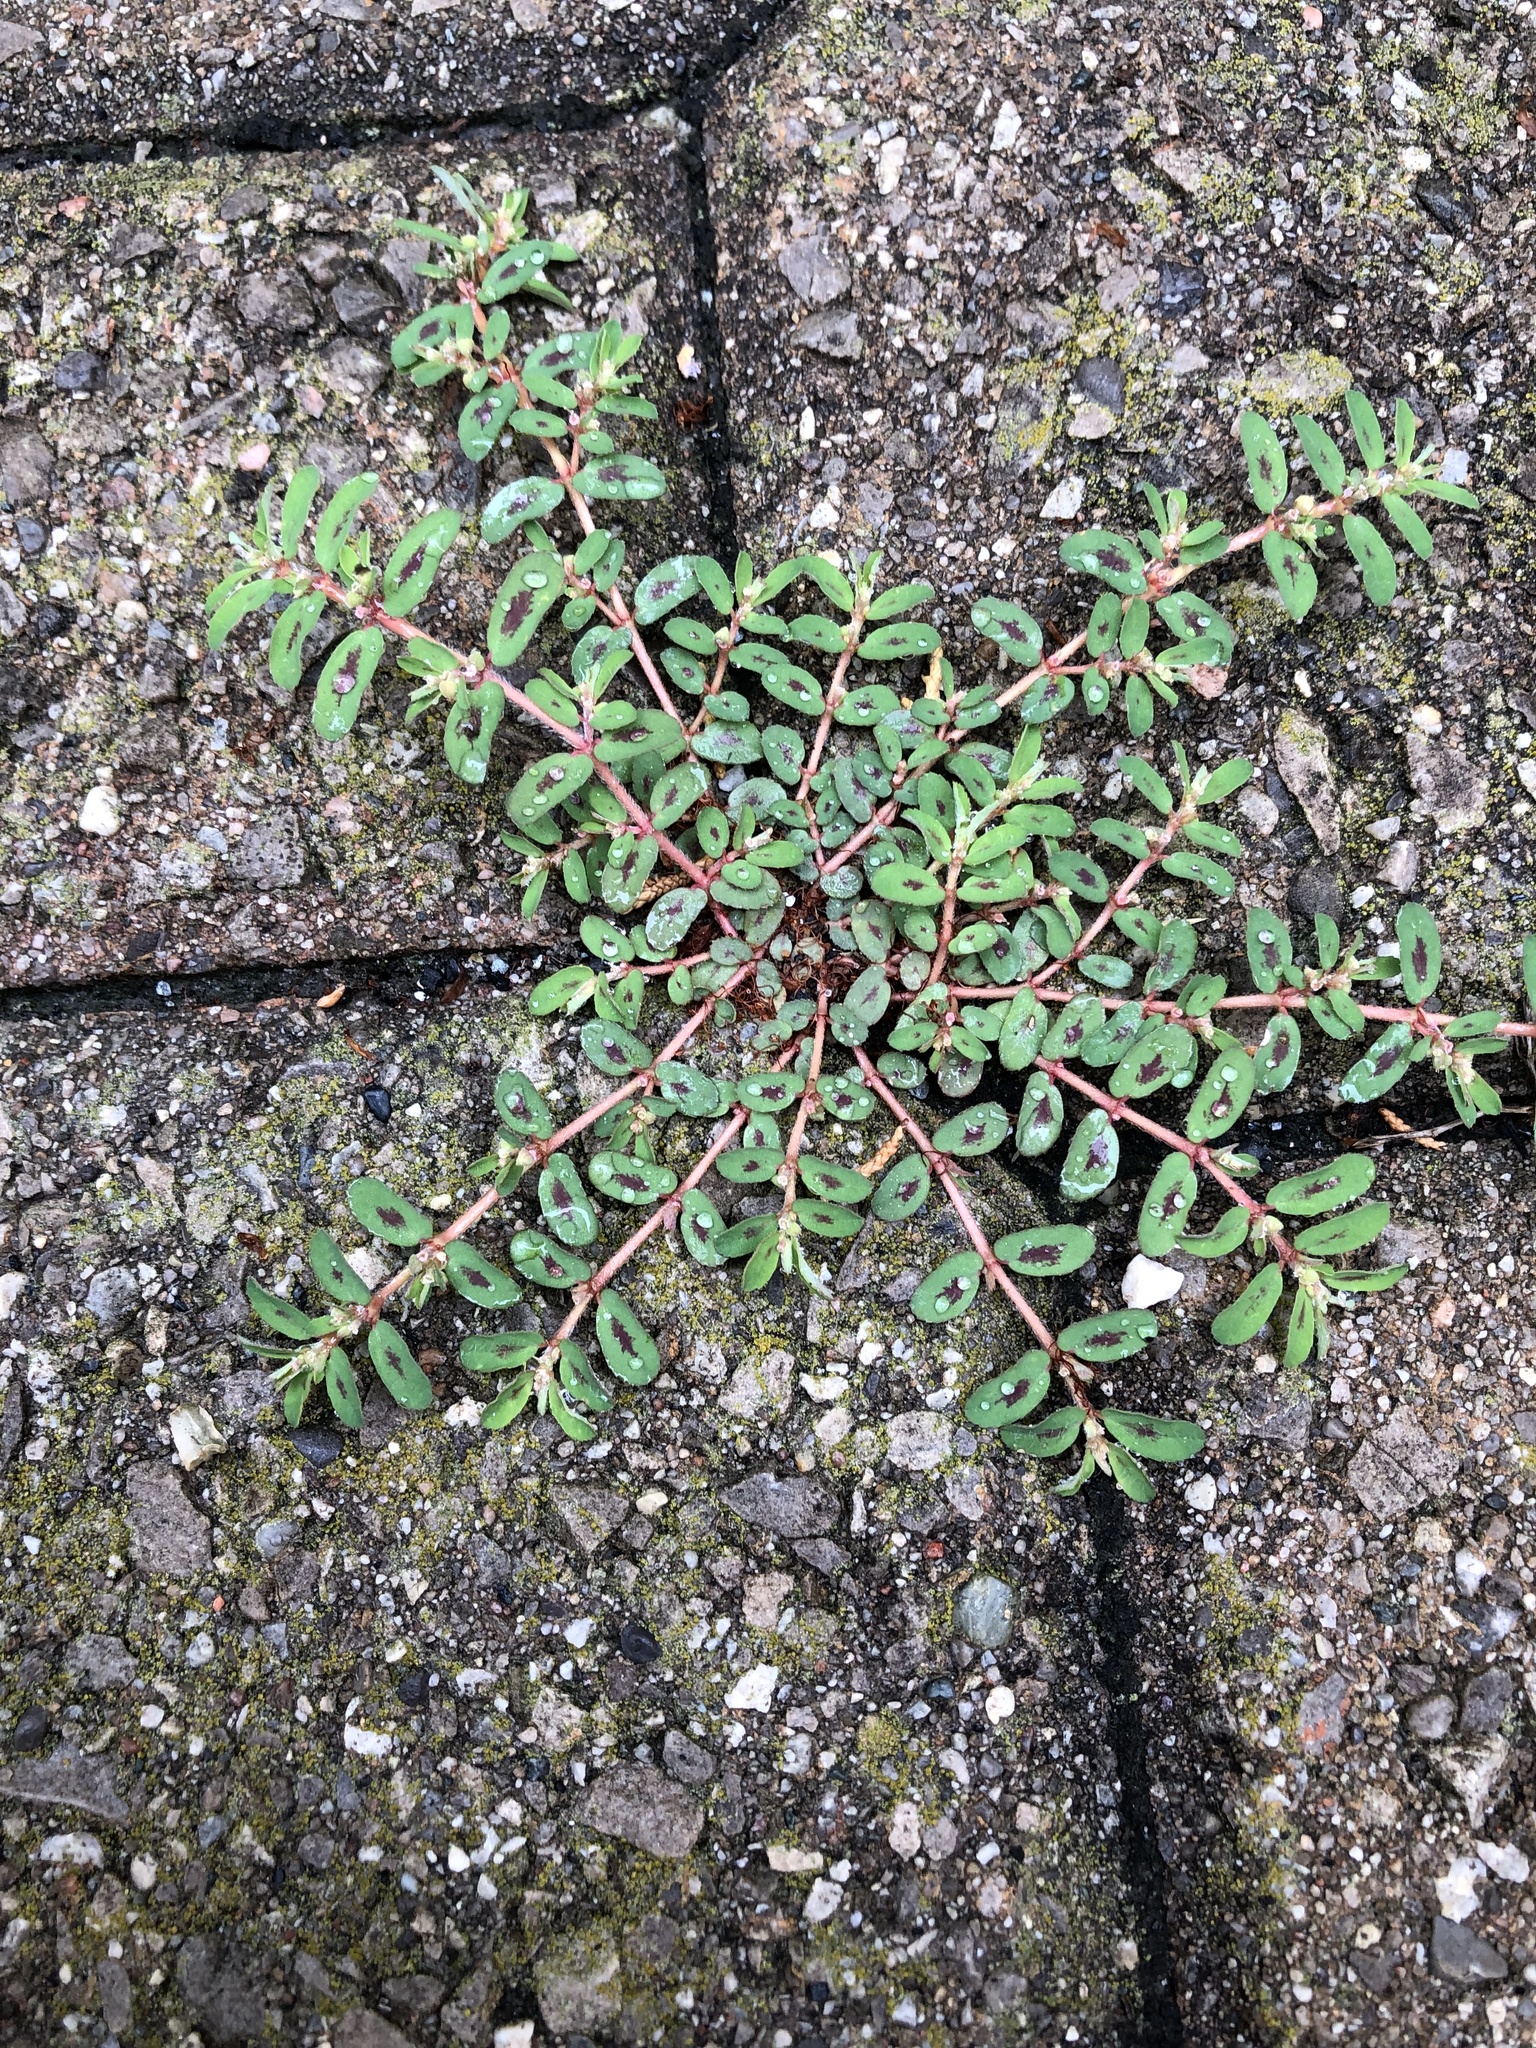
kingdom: Plantae
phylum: Tracheophyta
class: Magnoliopsida
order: Malpighiales
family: Euphorbiaceae
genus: Euphorbia
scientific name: Euphorbia maculata
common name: Spotted spurge
